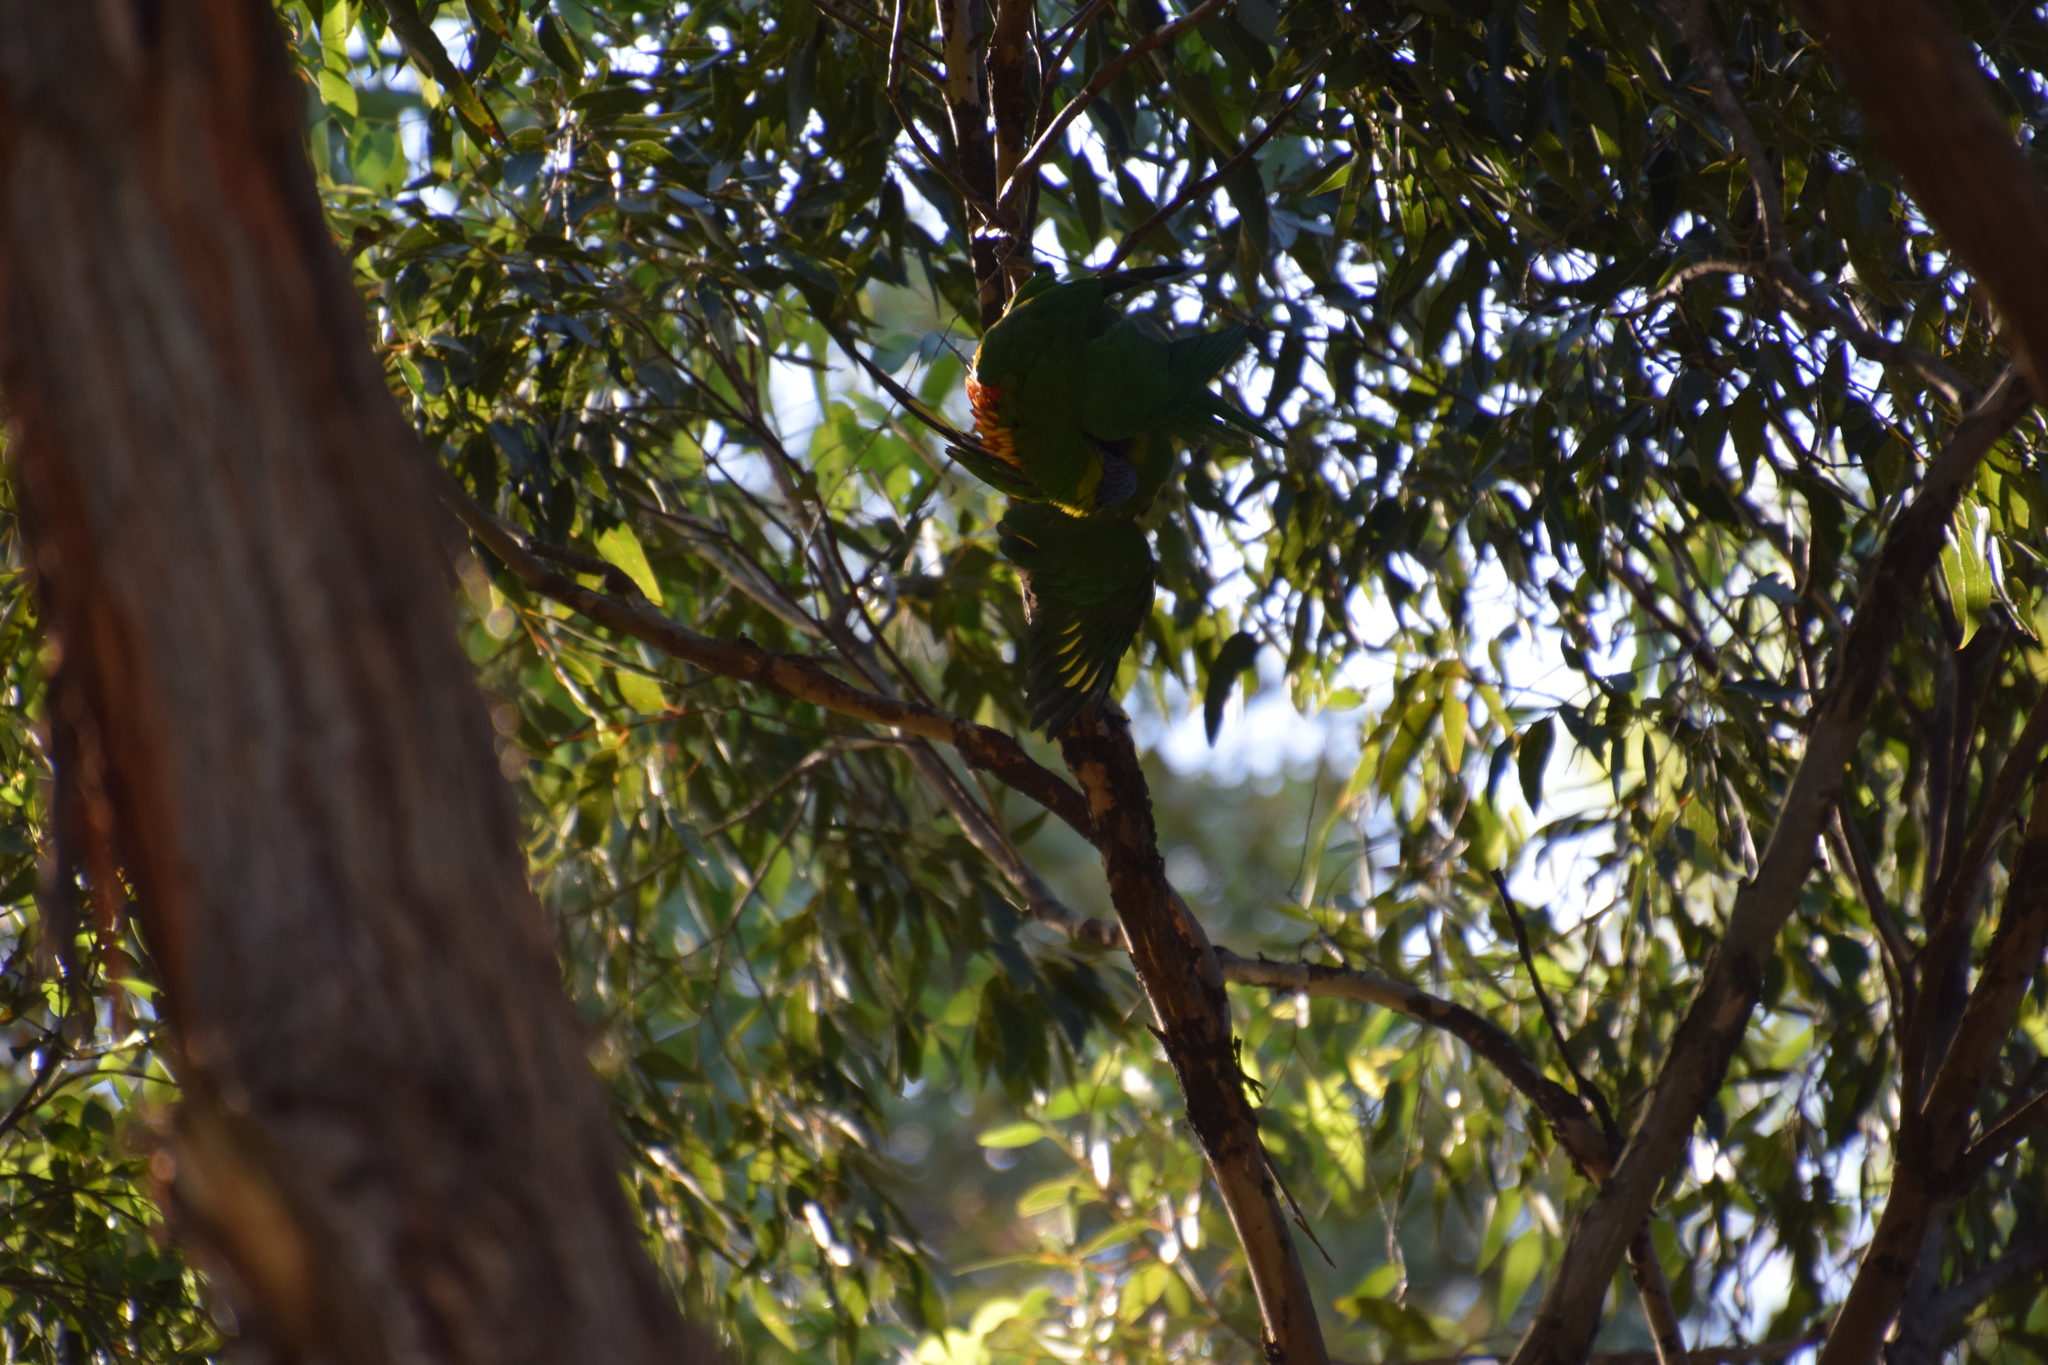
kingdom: Animalia
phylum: Chordata
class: Aves
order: Psittaciformes
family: Psittacidae
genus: Trichoglossus
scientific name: Trichoglossus haematodus
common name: Coconut lorikeet
